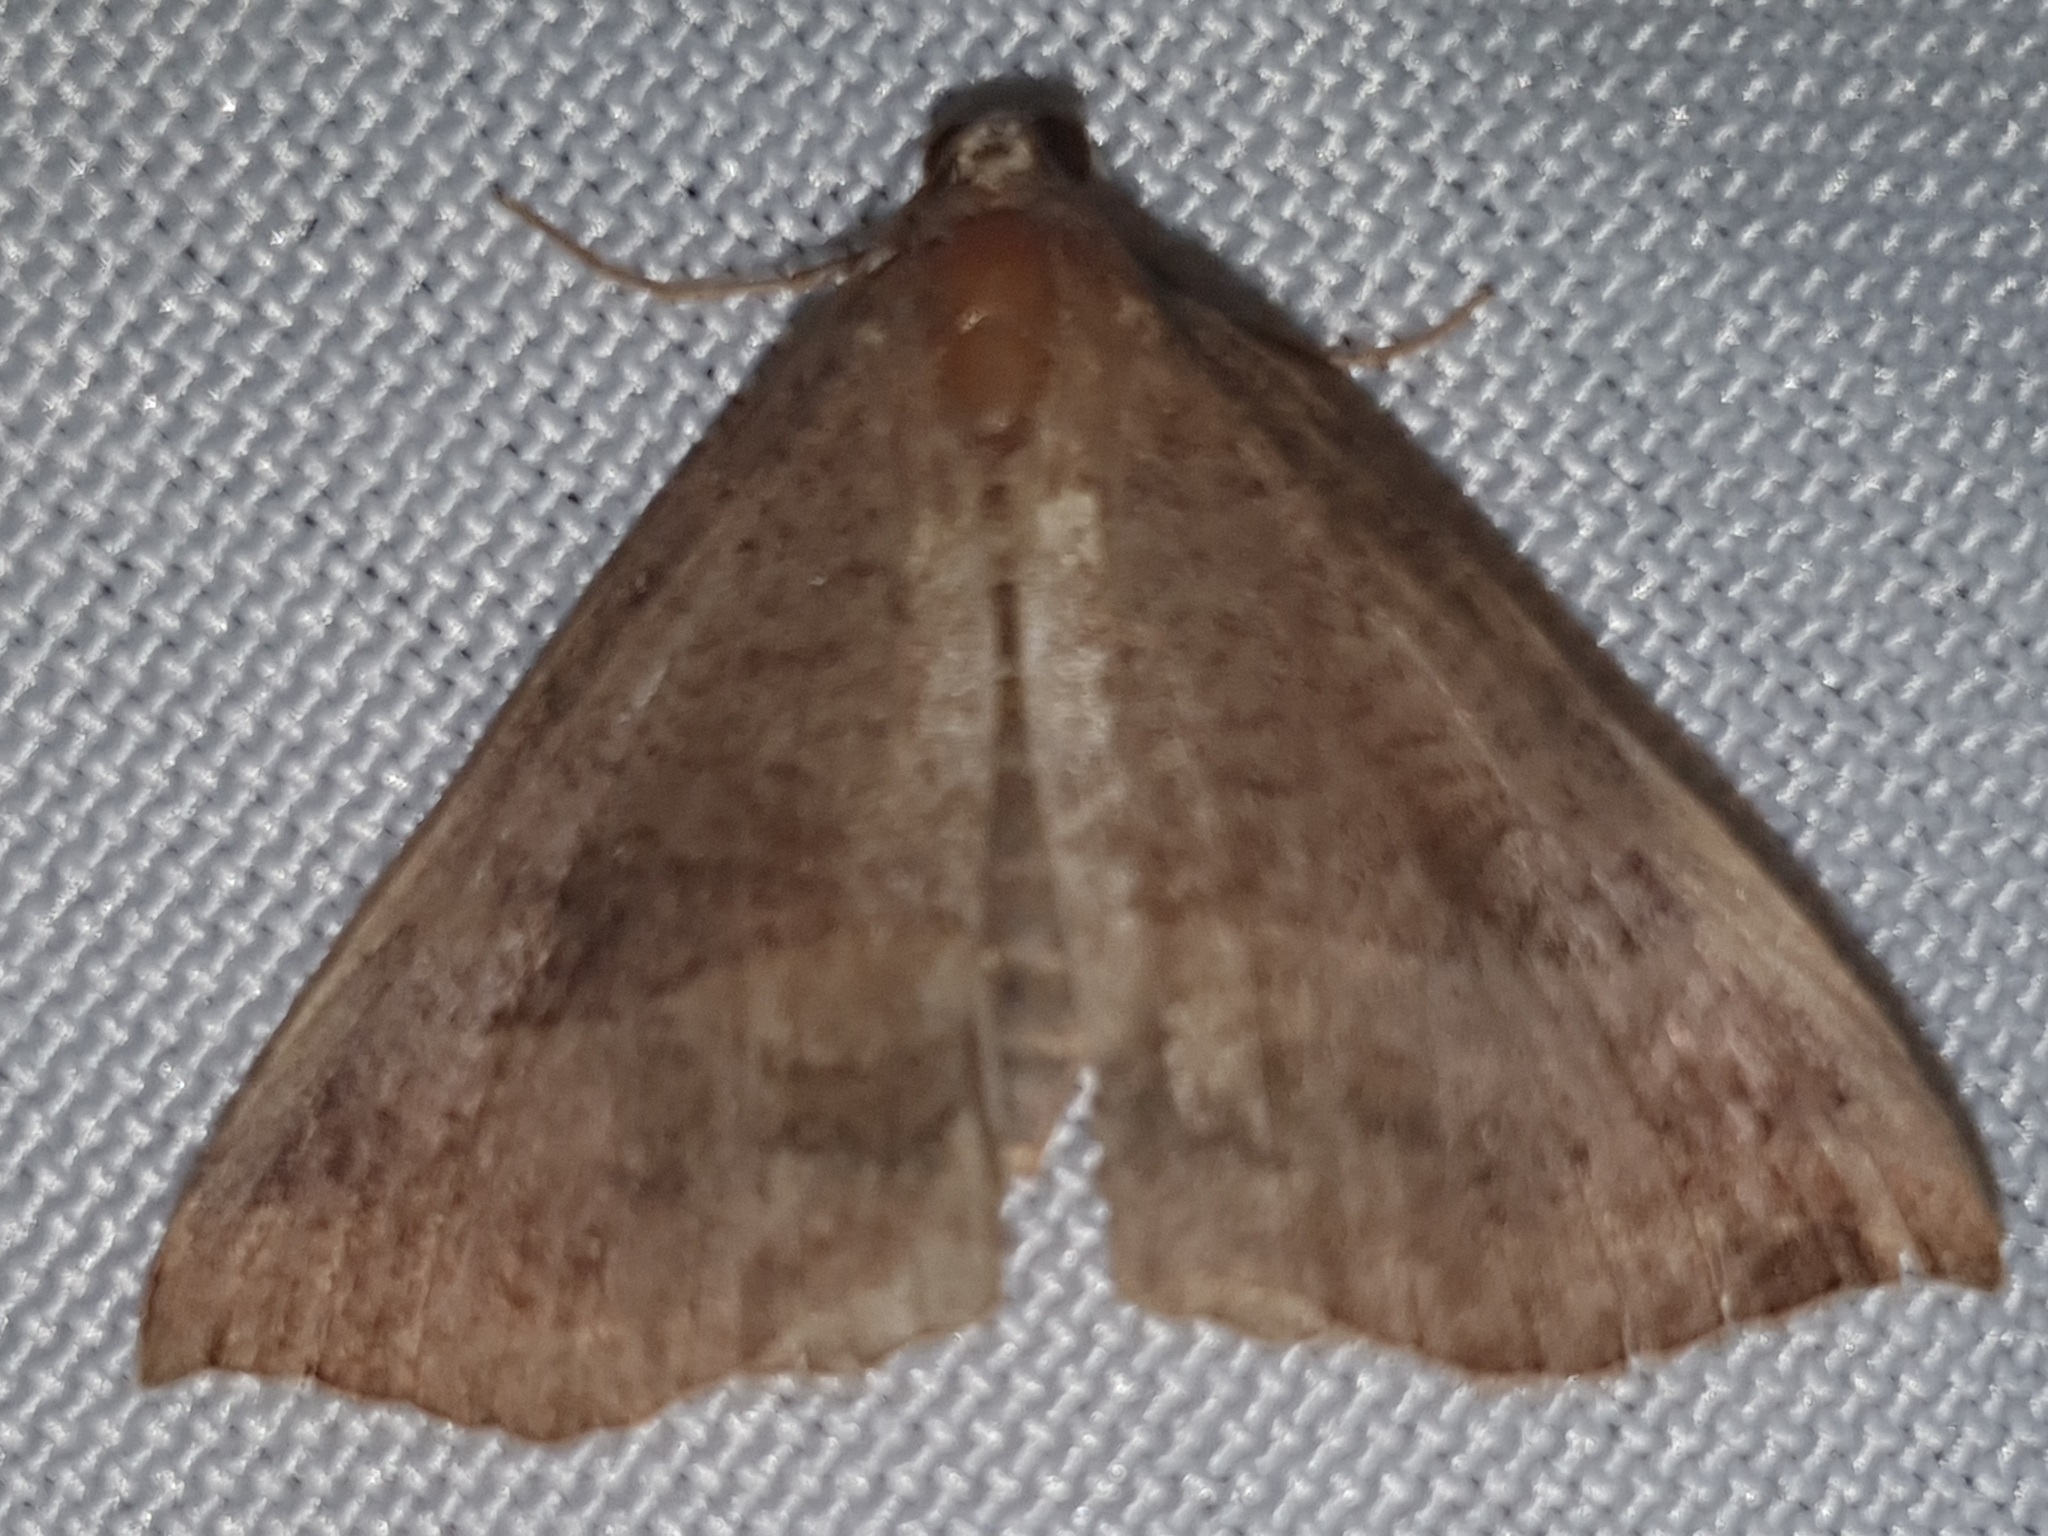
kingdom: Animalia
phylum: Arthropoda
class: Insecta
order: Lepidoptera
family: Erebidae
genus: Hypena
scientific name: Hypena proboscidalis
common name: Snout
